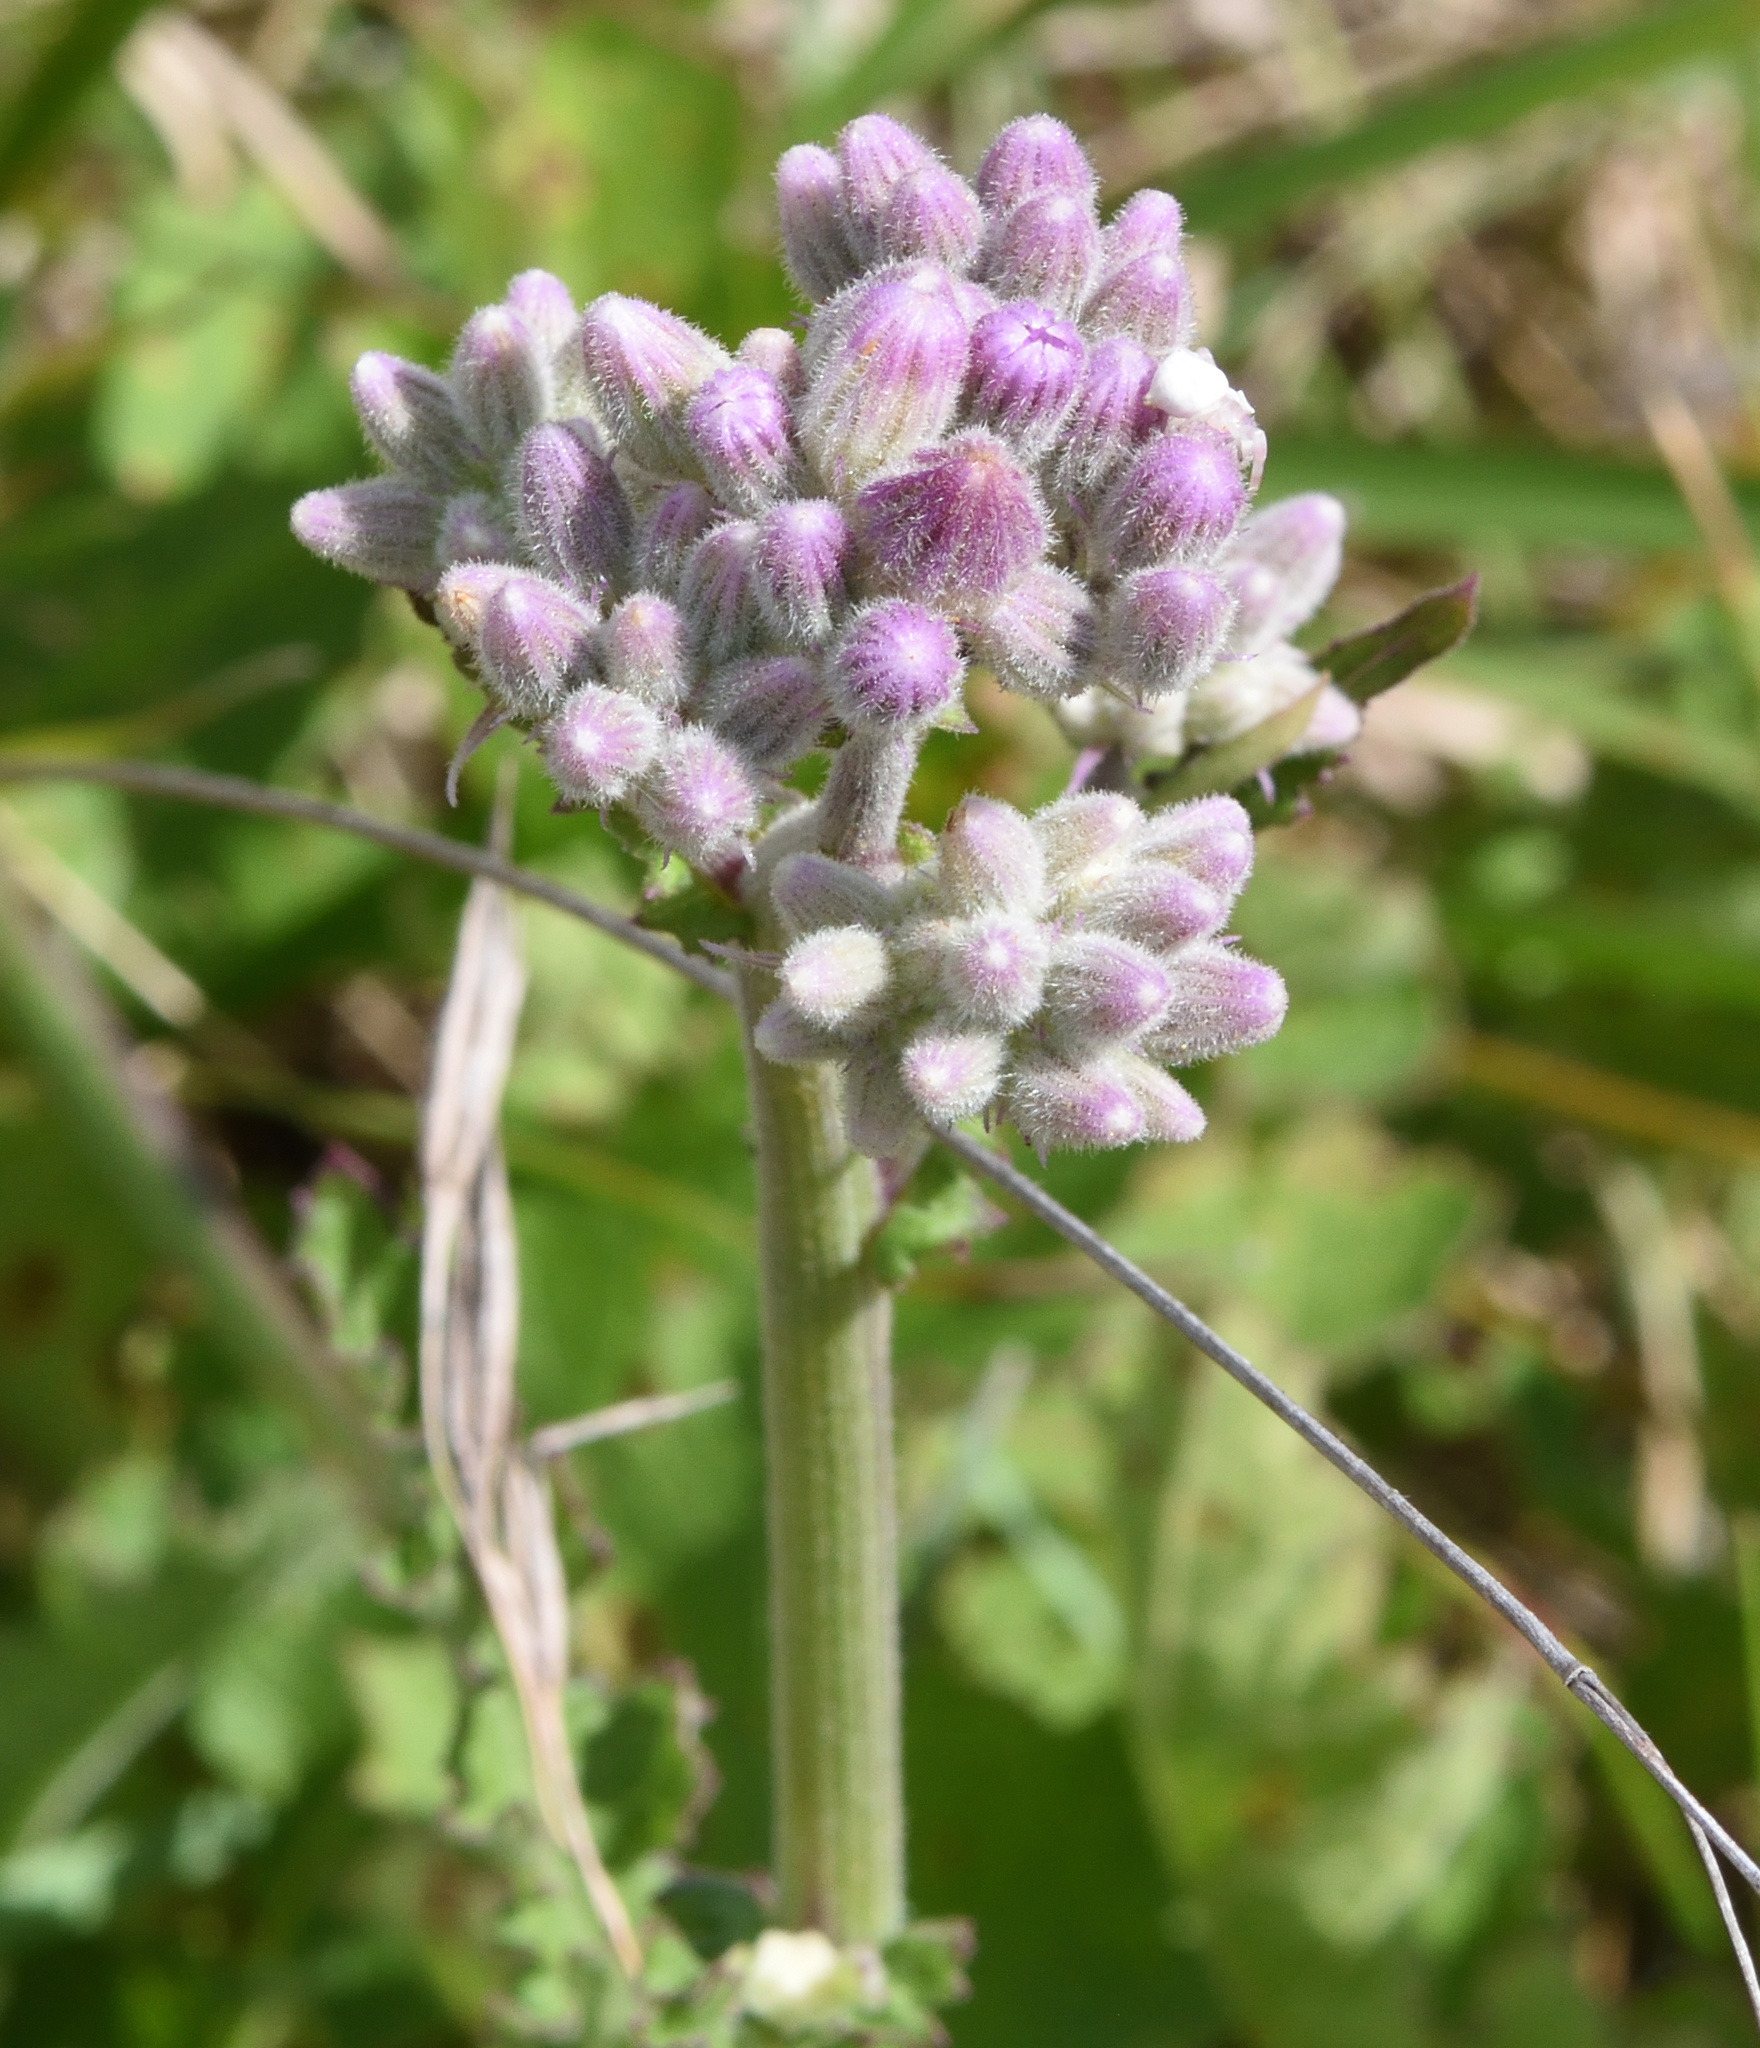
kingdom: Plantae
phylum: Tracheophyta
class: Magnoliopsida
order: Asterales
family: Asteraceae
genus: Senecio
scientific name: Senecio purpureus
